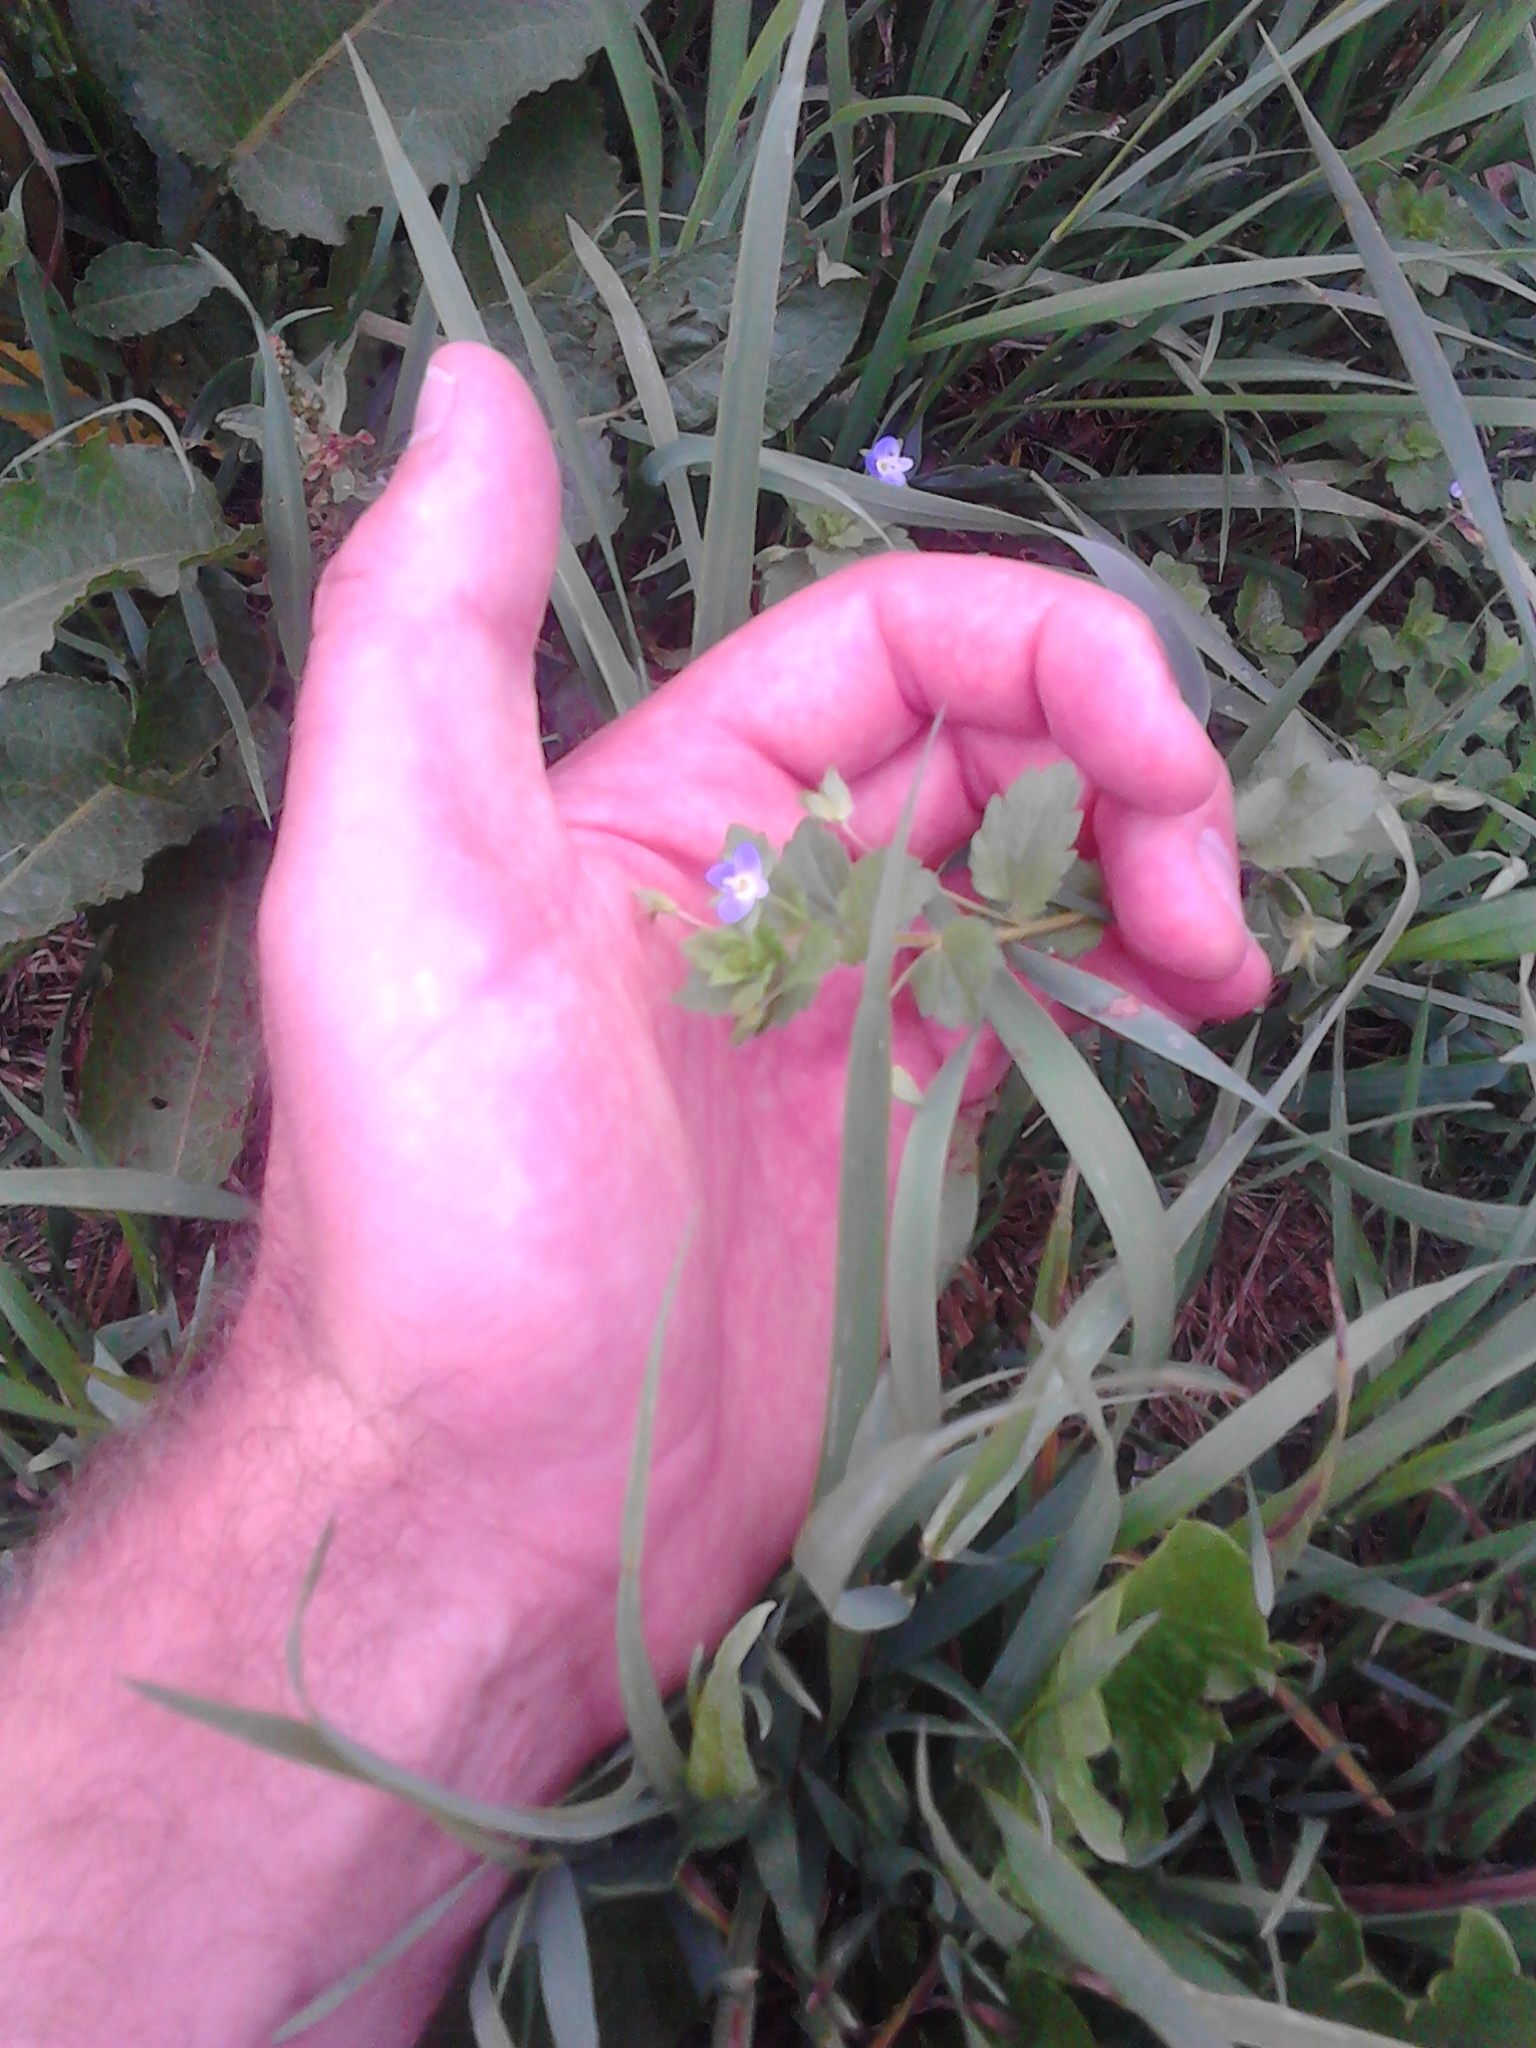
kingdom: Plantae
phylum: Tracheophyta
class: Magnoliopsida
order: Lamiales
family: Plantaginaceae
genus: Veronica
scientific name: Veronica persica
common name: Common field-speedwell
